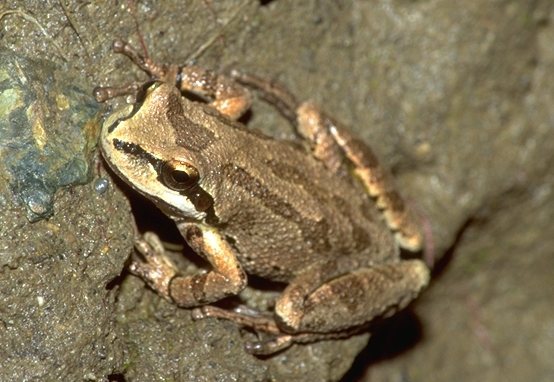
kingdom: Animalia
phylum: Chordata
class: Amphibia
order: Anura
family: Hylidae
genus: Pseudacris
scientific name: Pseudacris regilla
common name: Pacific chorus frog
